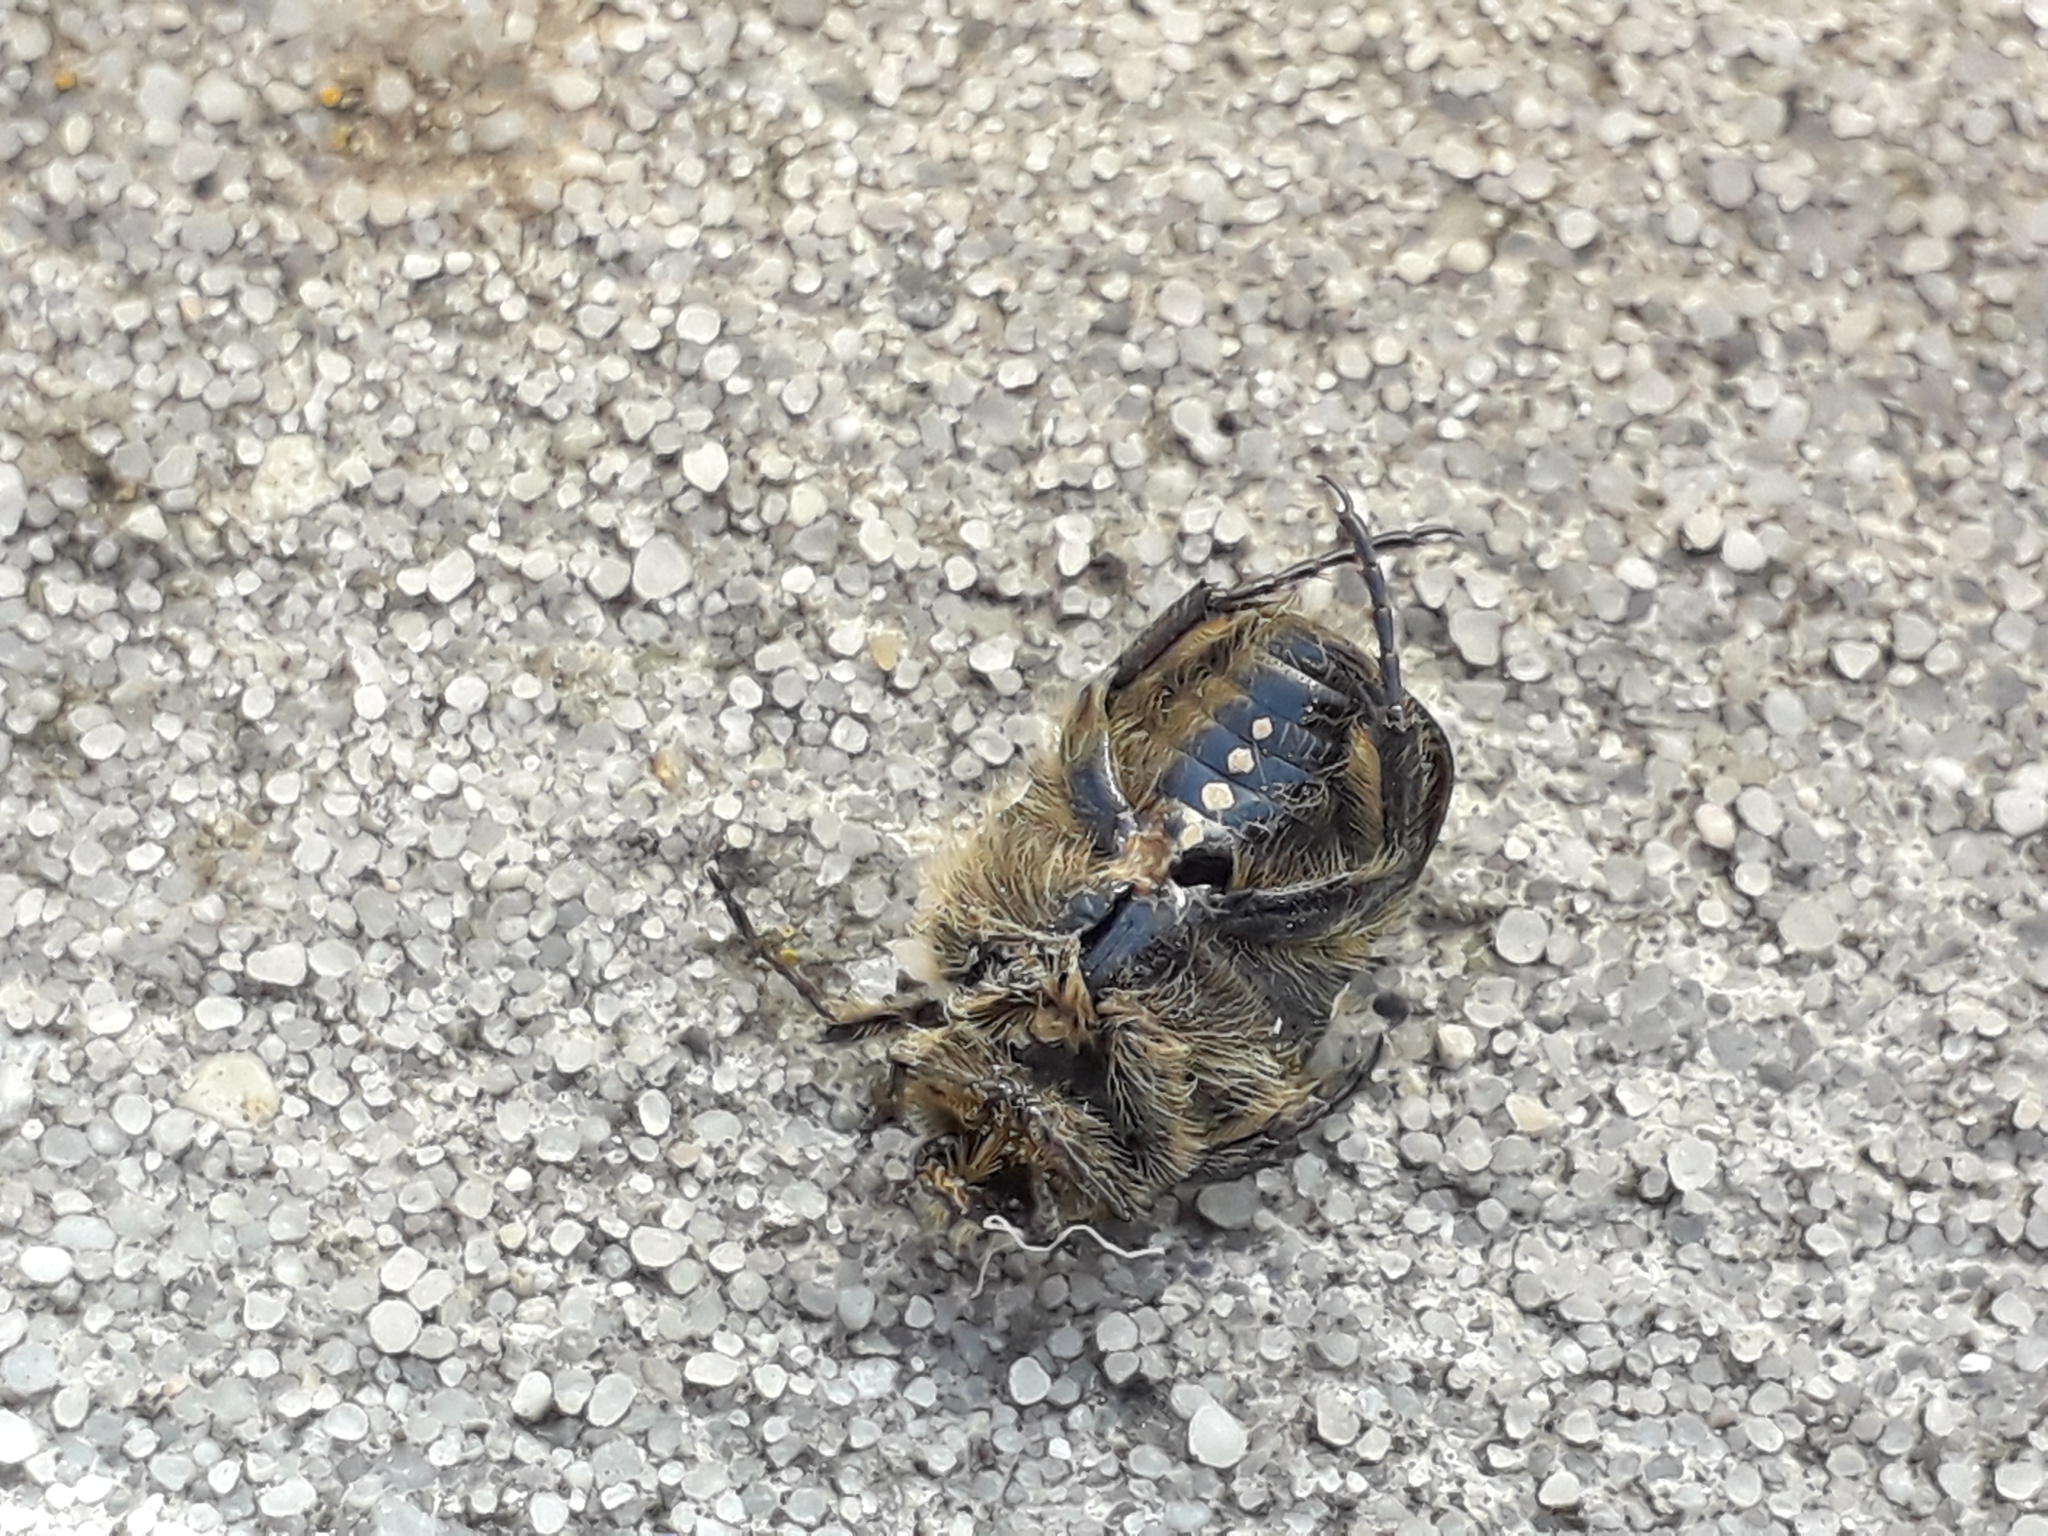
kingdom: Animalia
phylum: Arthropoda
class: Insecta
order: Coleoptera
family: Scarabaeidae
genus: Oxythyrea
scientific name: Oxythyrea funesta
